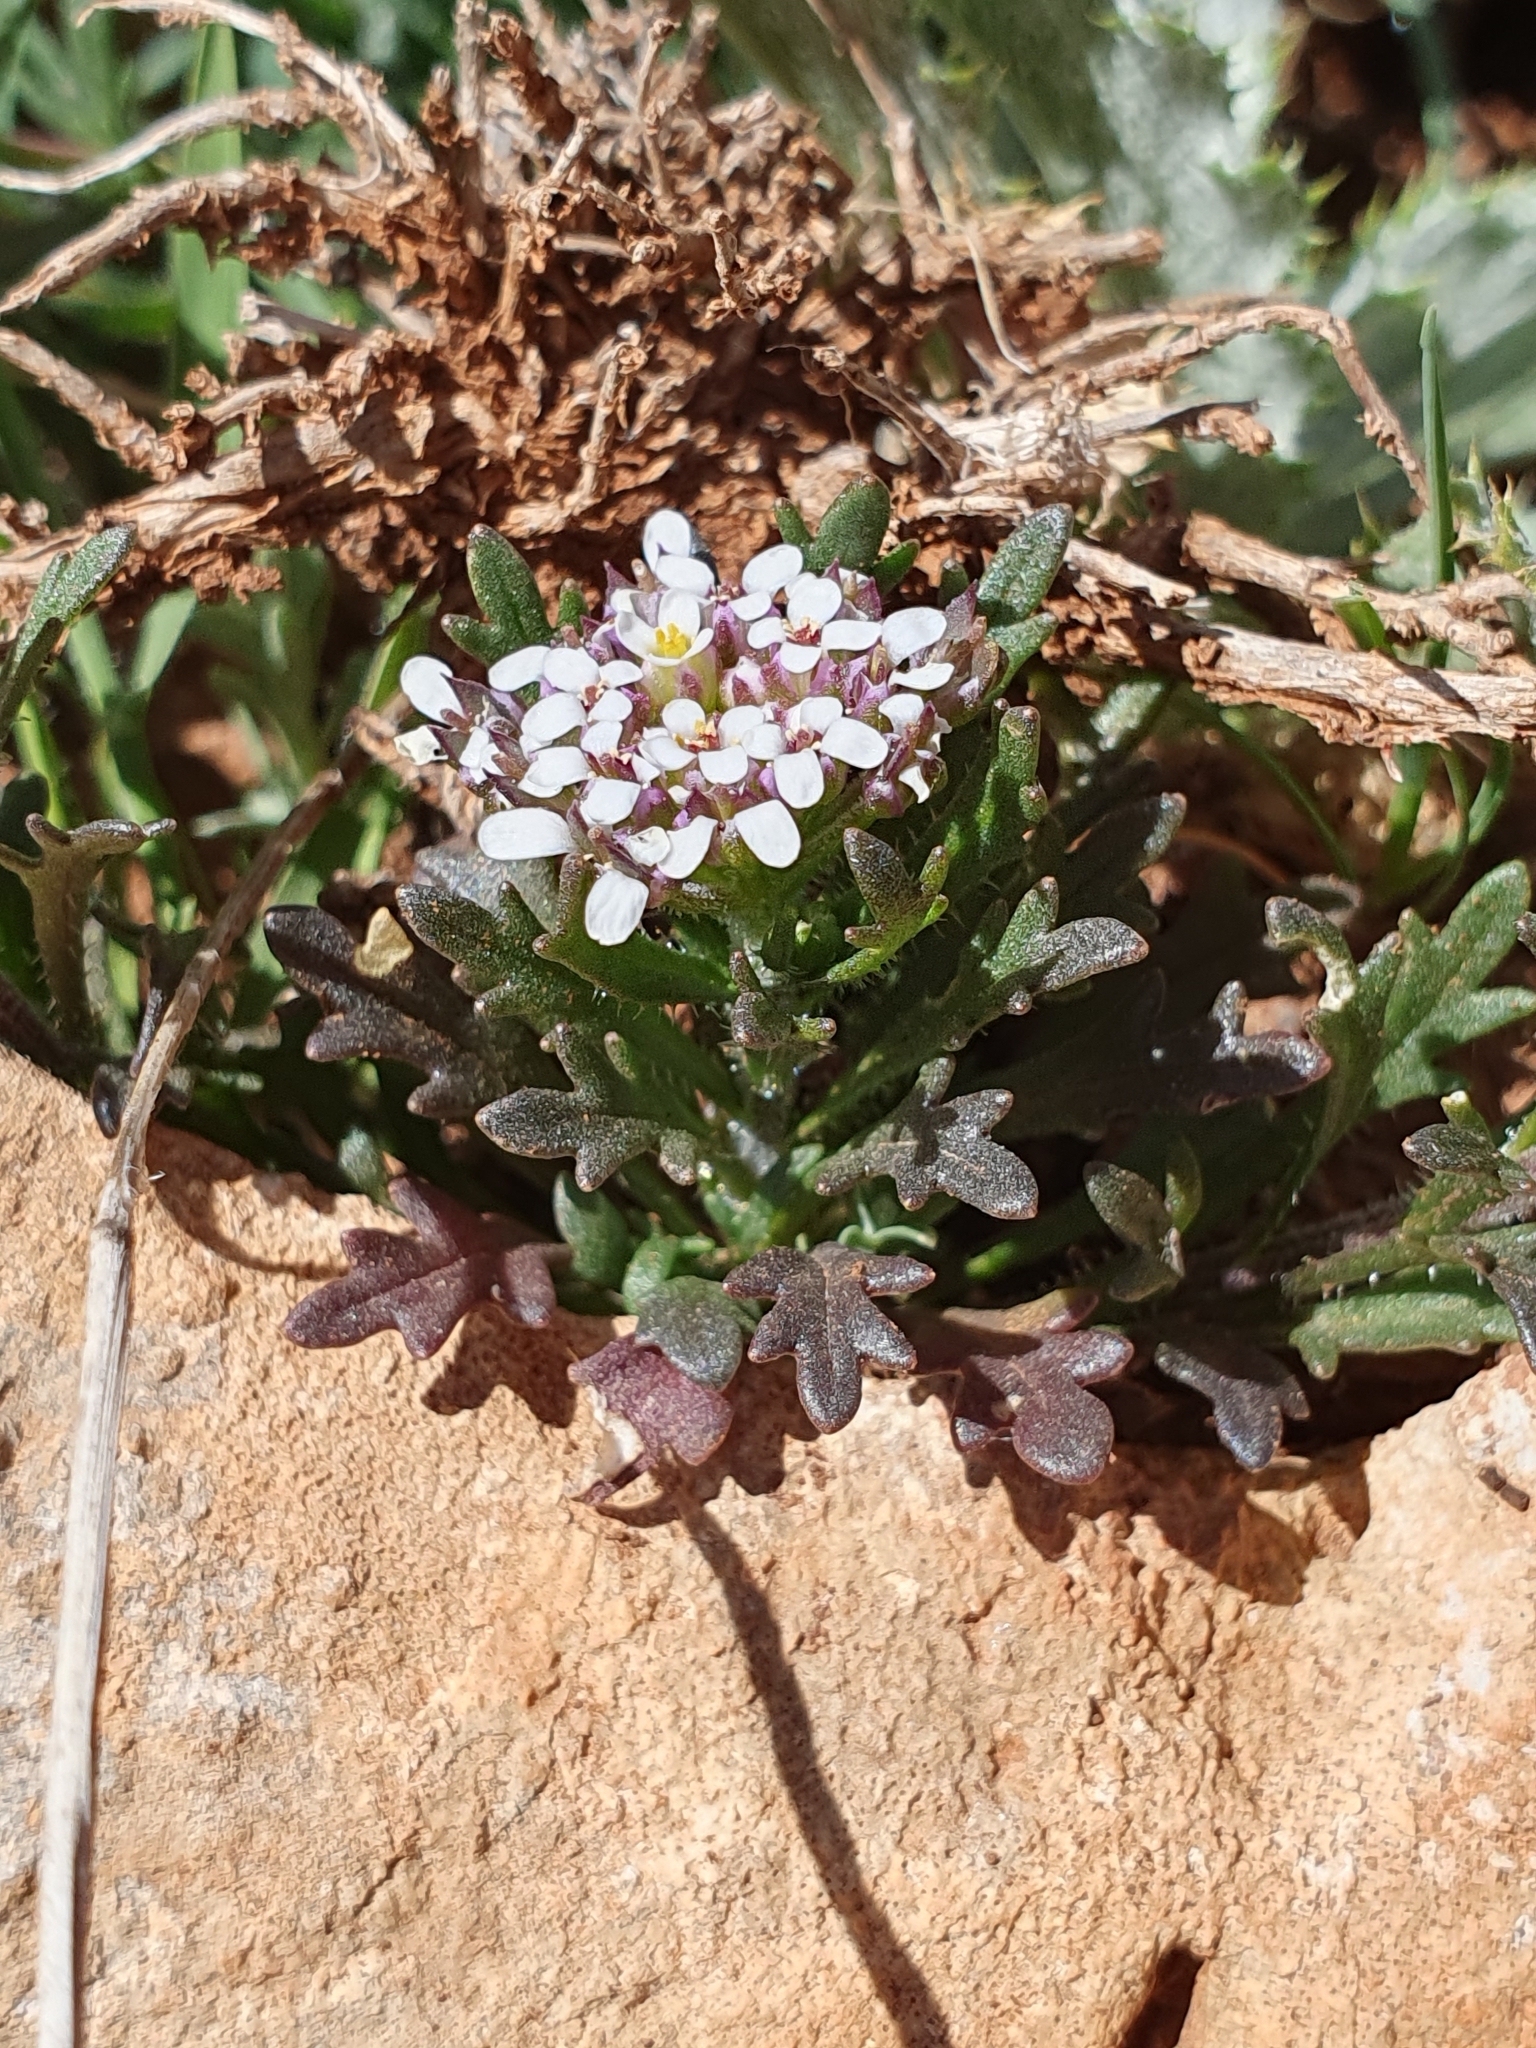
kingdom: Plantae
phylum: Tracheophyta
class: Magnoliopsida
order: Brassicales
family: Brassicaceae
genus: Iberis
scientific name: Iberis odorata
